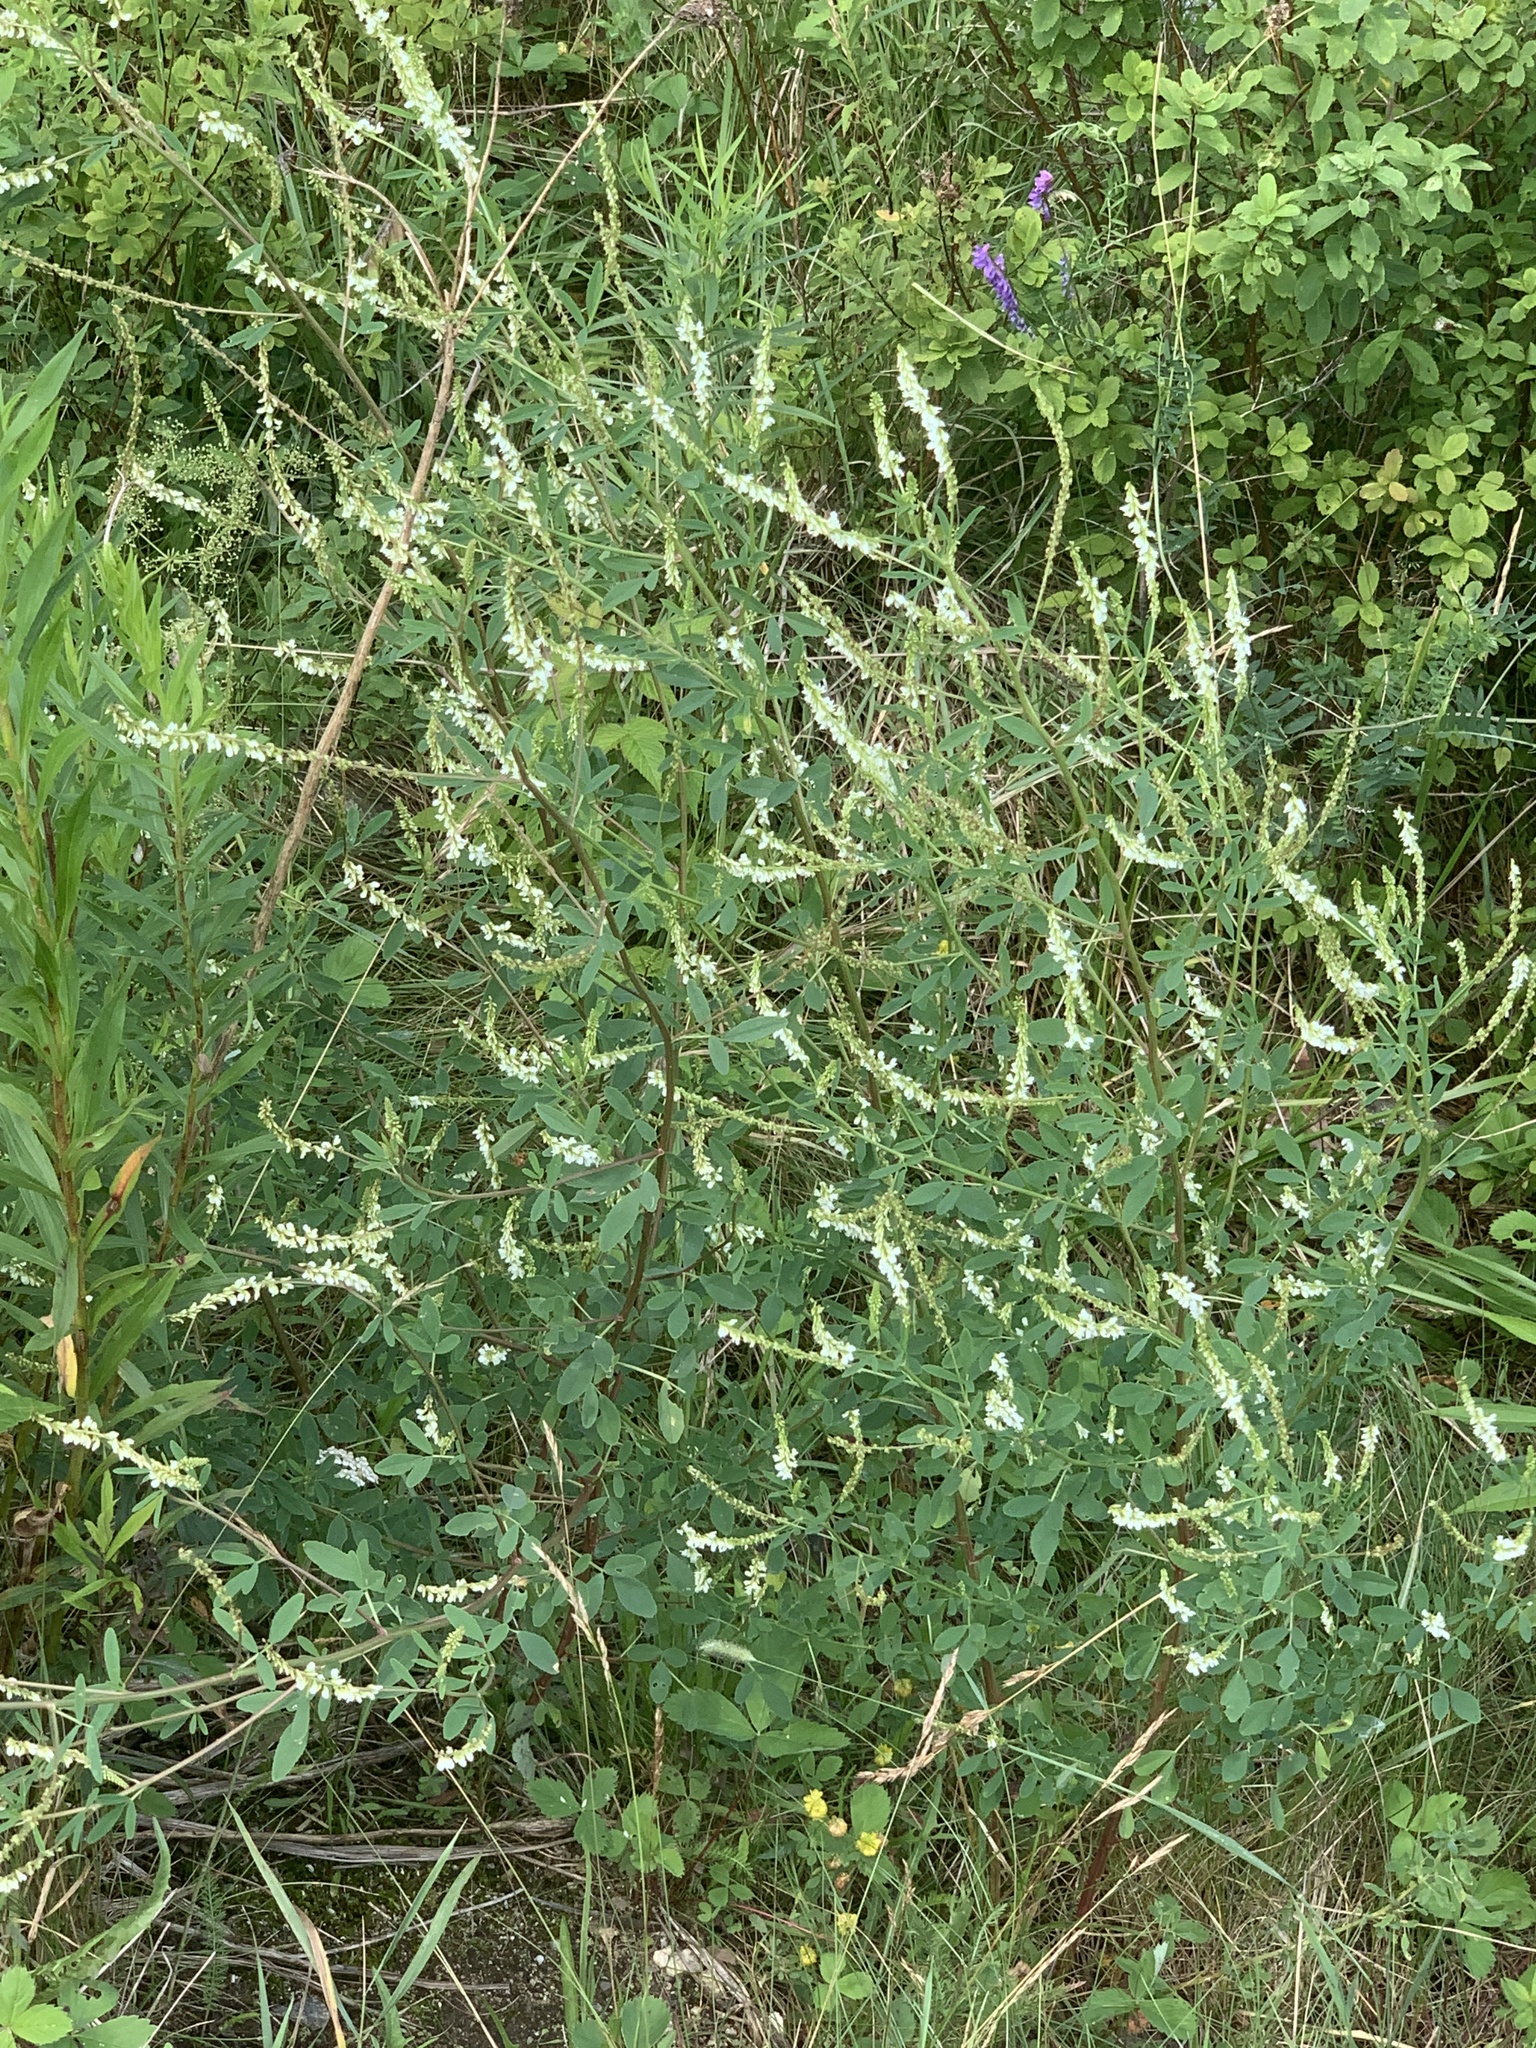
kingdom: Plantae
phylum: Tracheophyta
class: Magnoliopsida
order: Fabales
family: Fabaceae
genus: Melilotus
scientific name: Melilotus albus
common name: White melilot
